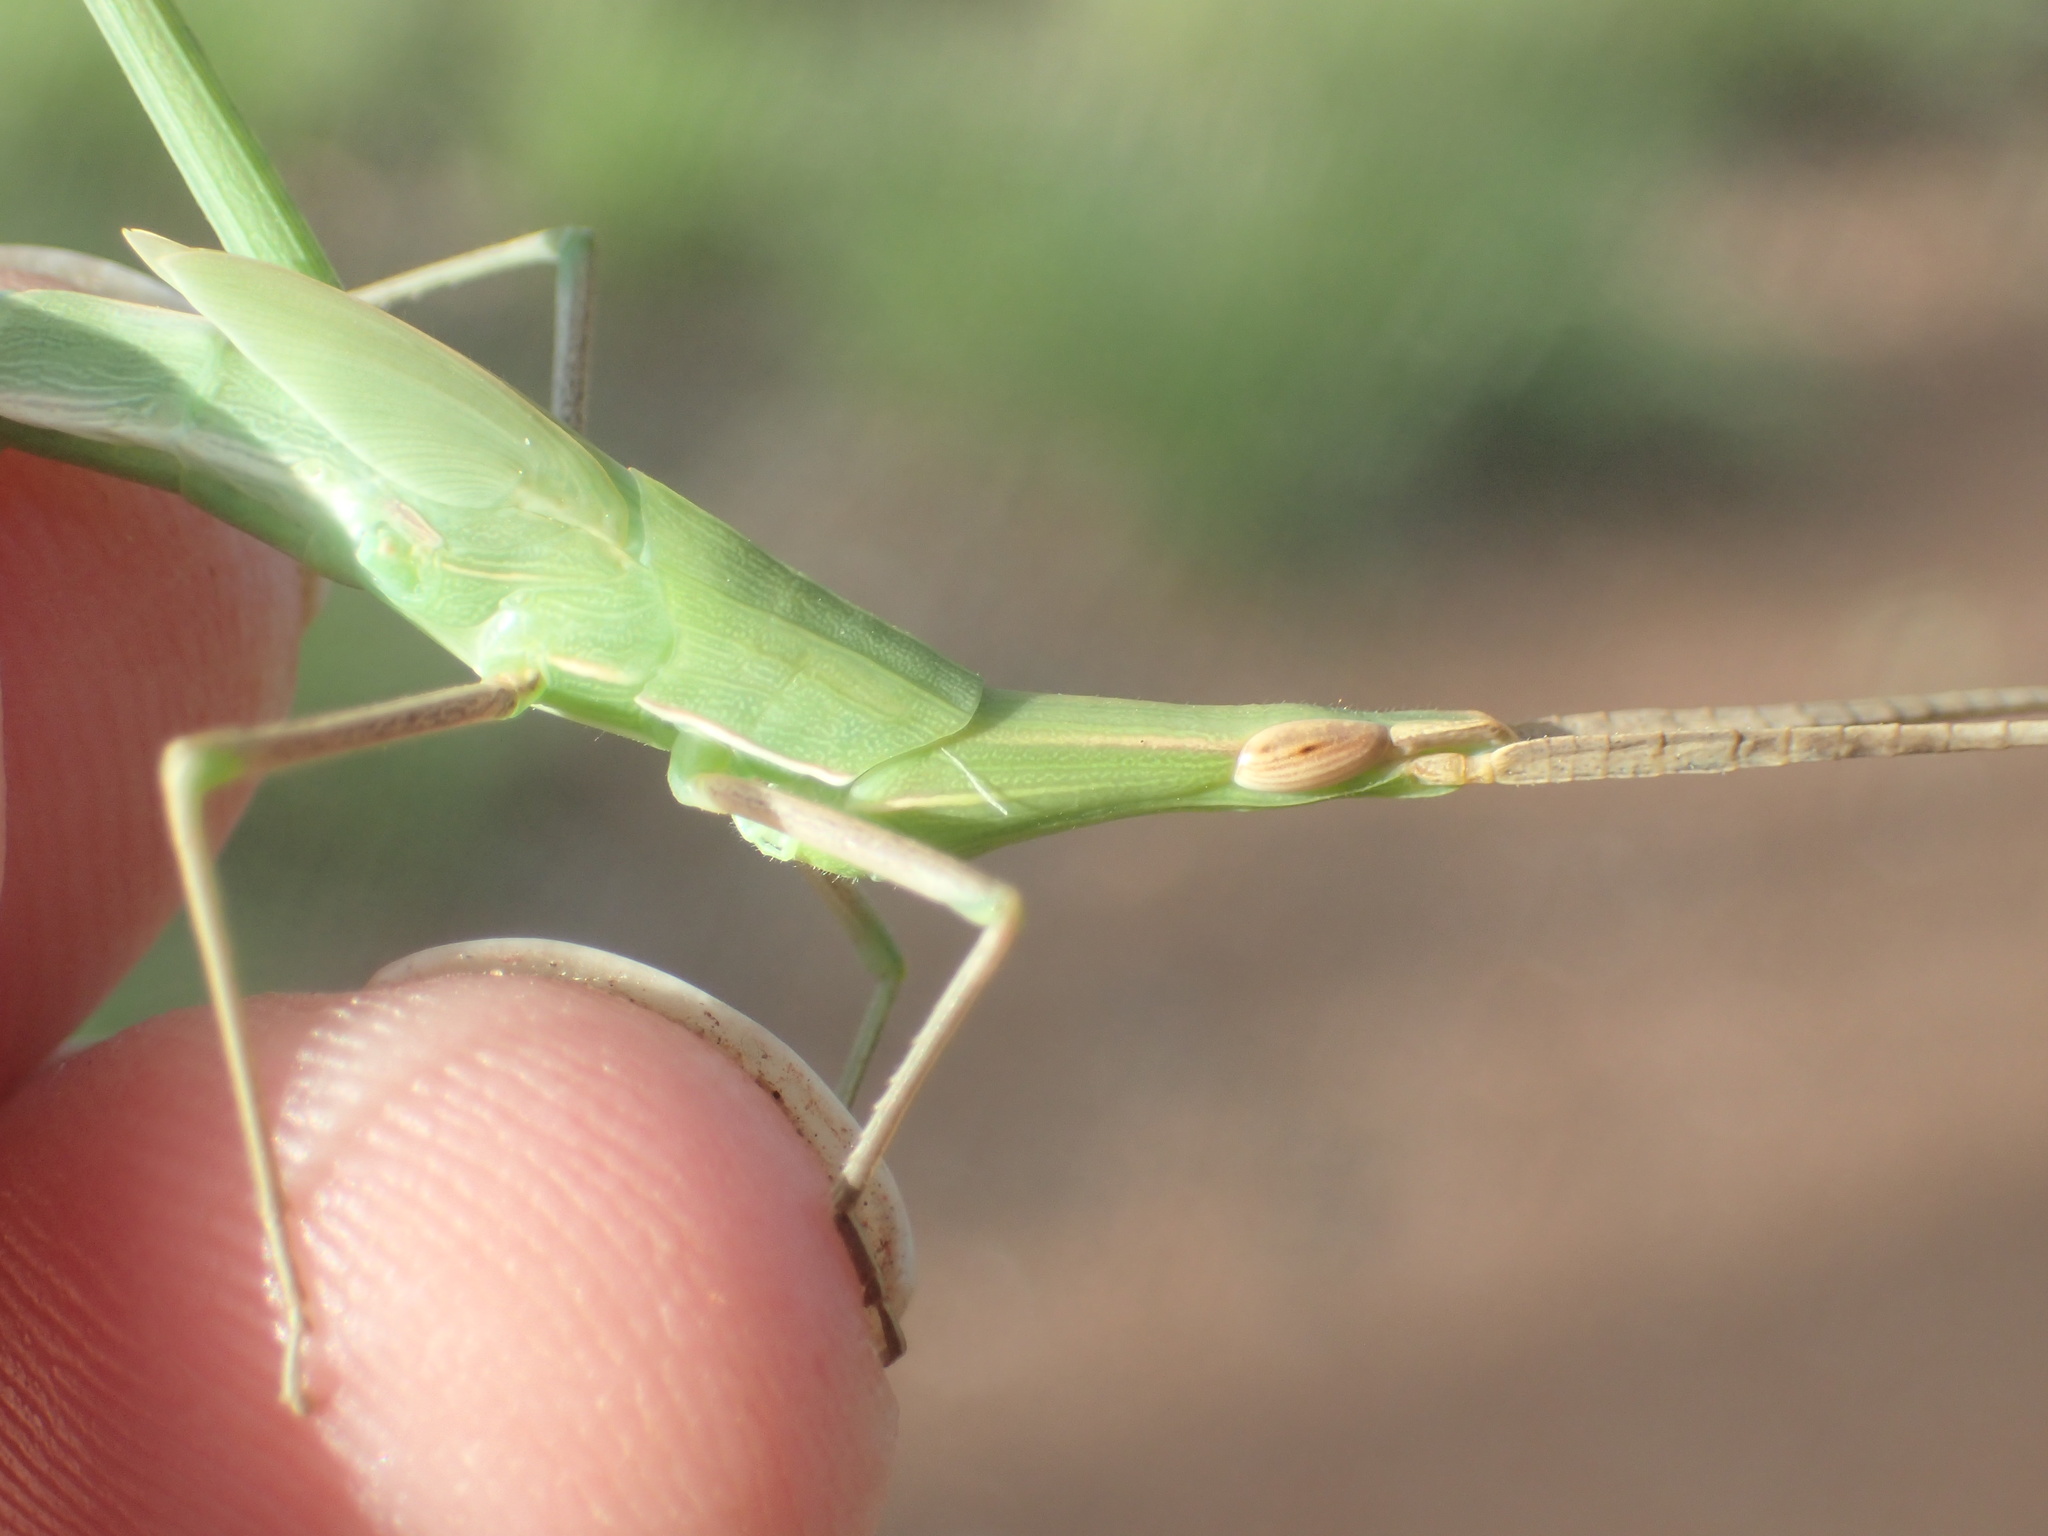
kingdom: Animalia
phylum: Arthropoda
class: Insecta
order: Orthoptera
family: Acrididae
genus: Acrida
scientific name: Acrida conica
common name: Giant green slantface
